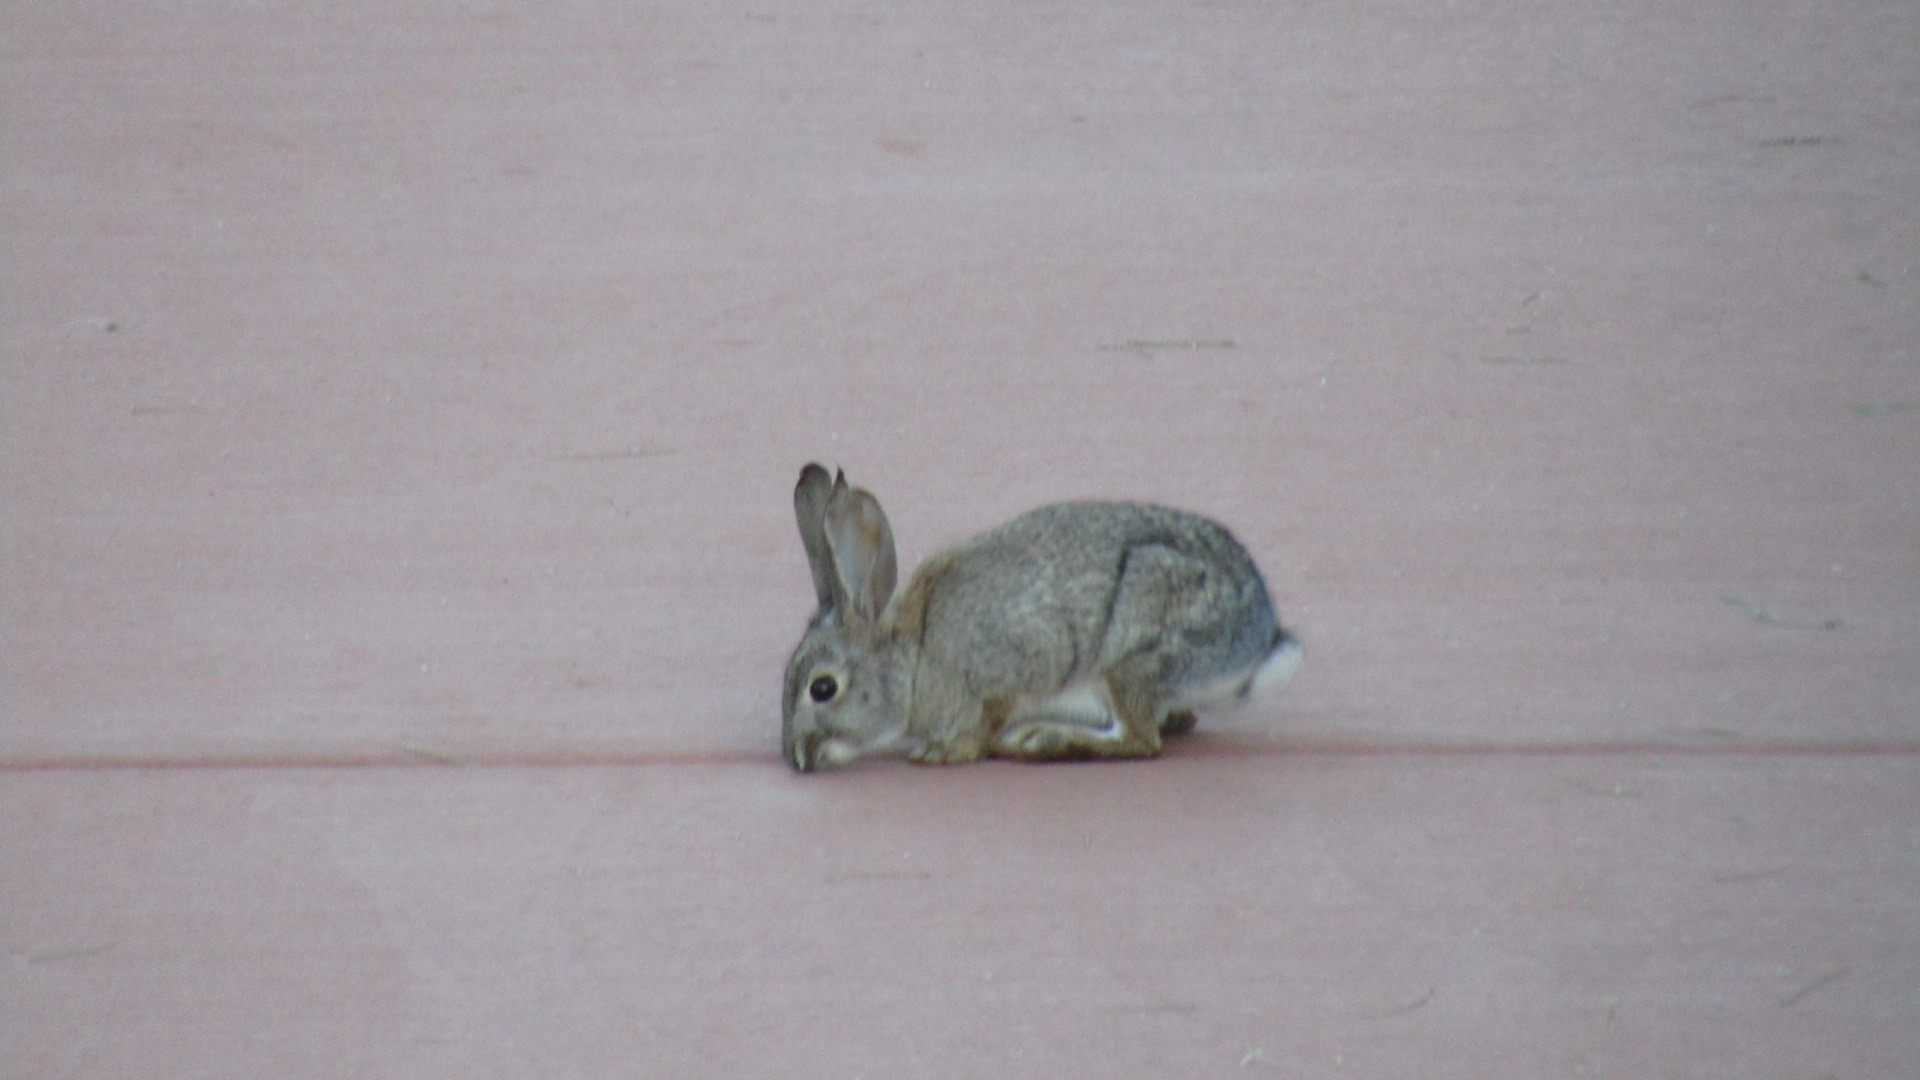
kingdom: Animalia
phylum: Chordata
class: Mammalia
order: Lagomorpha
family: Leporidae
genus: Sylvilagus
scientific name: Sylvilagus audubonii
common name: Desert cottontail
